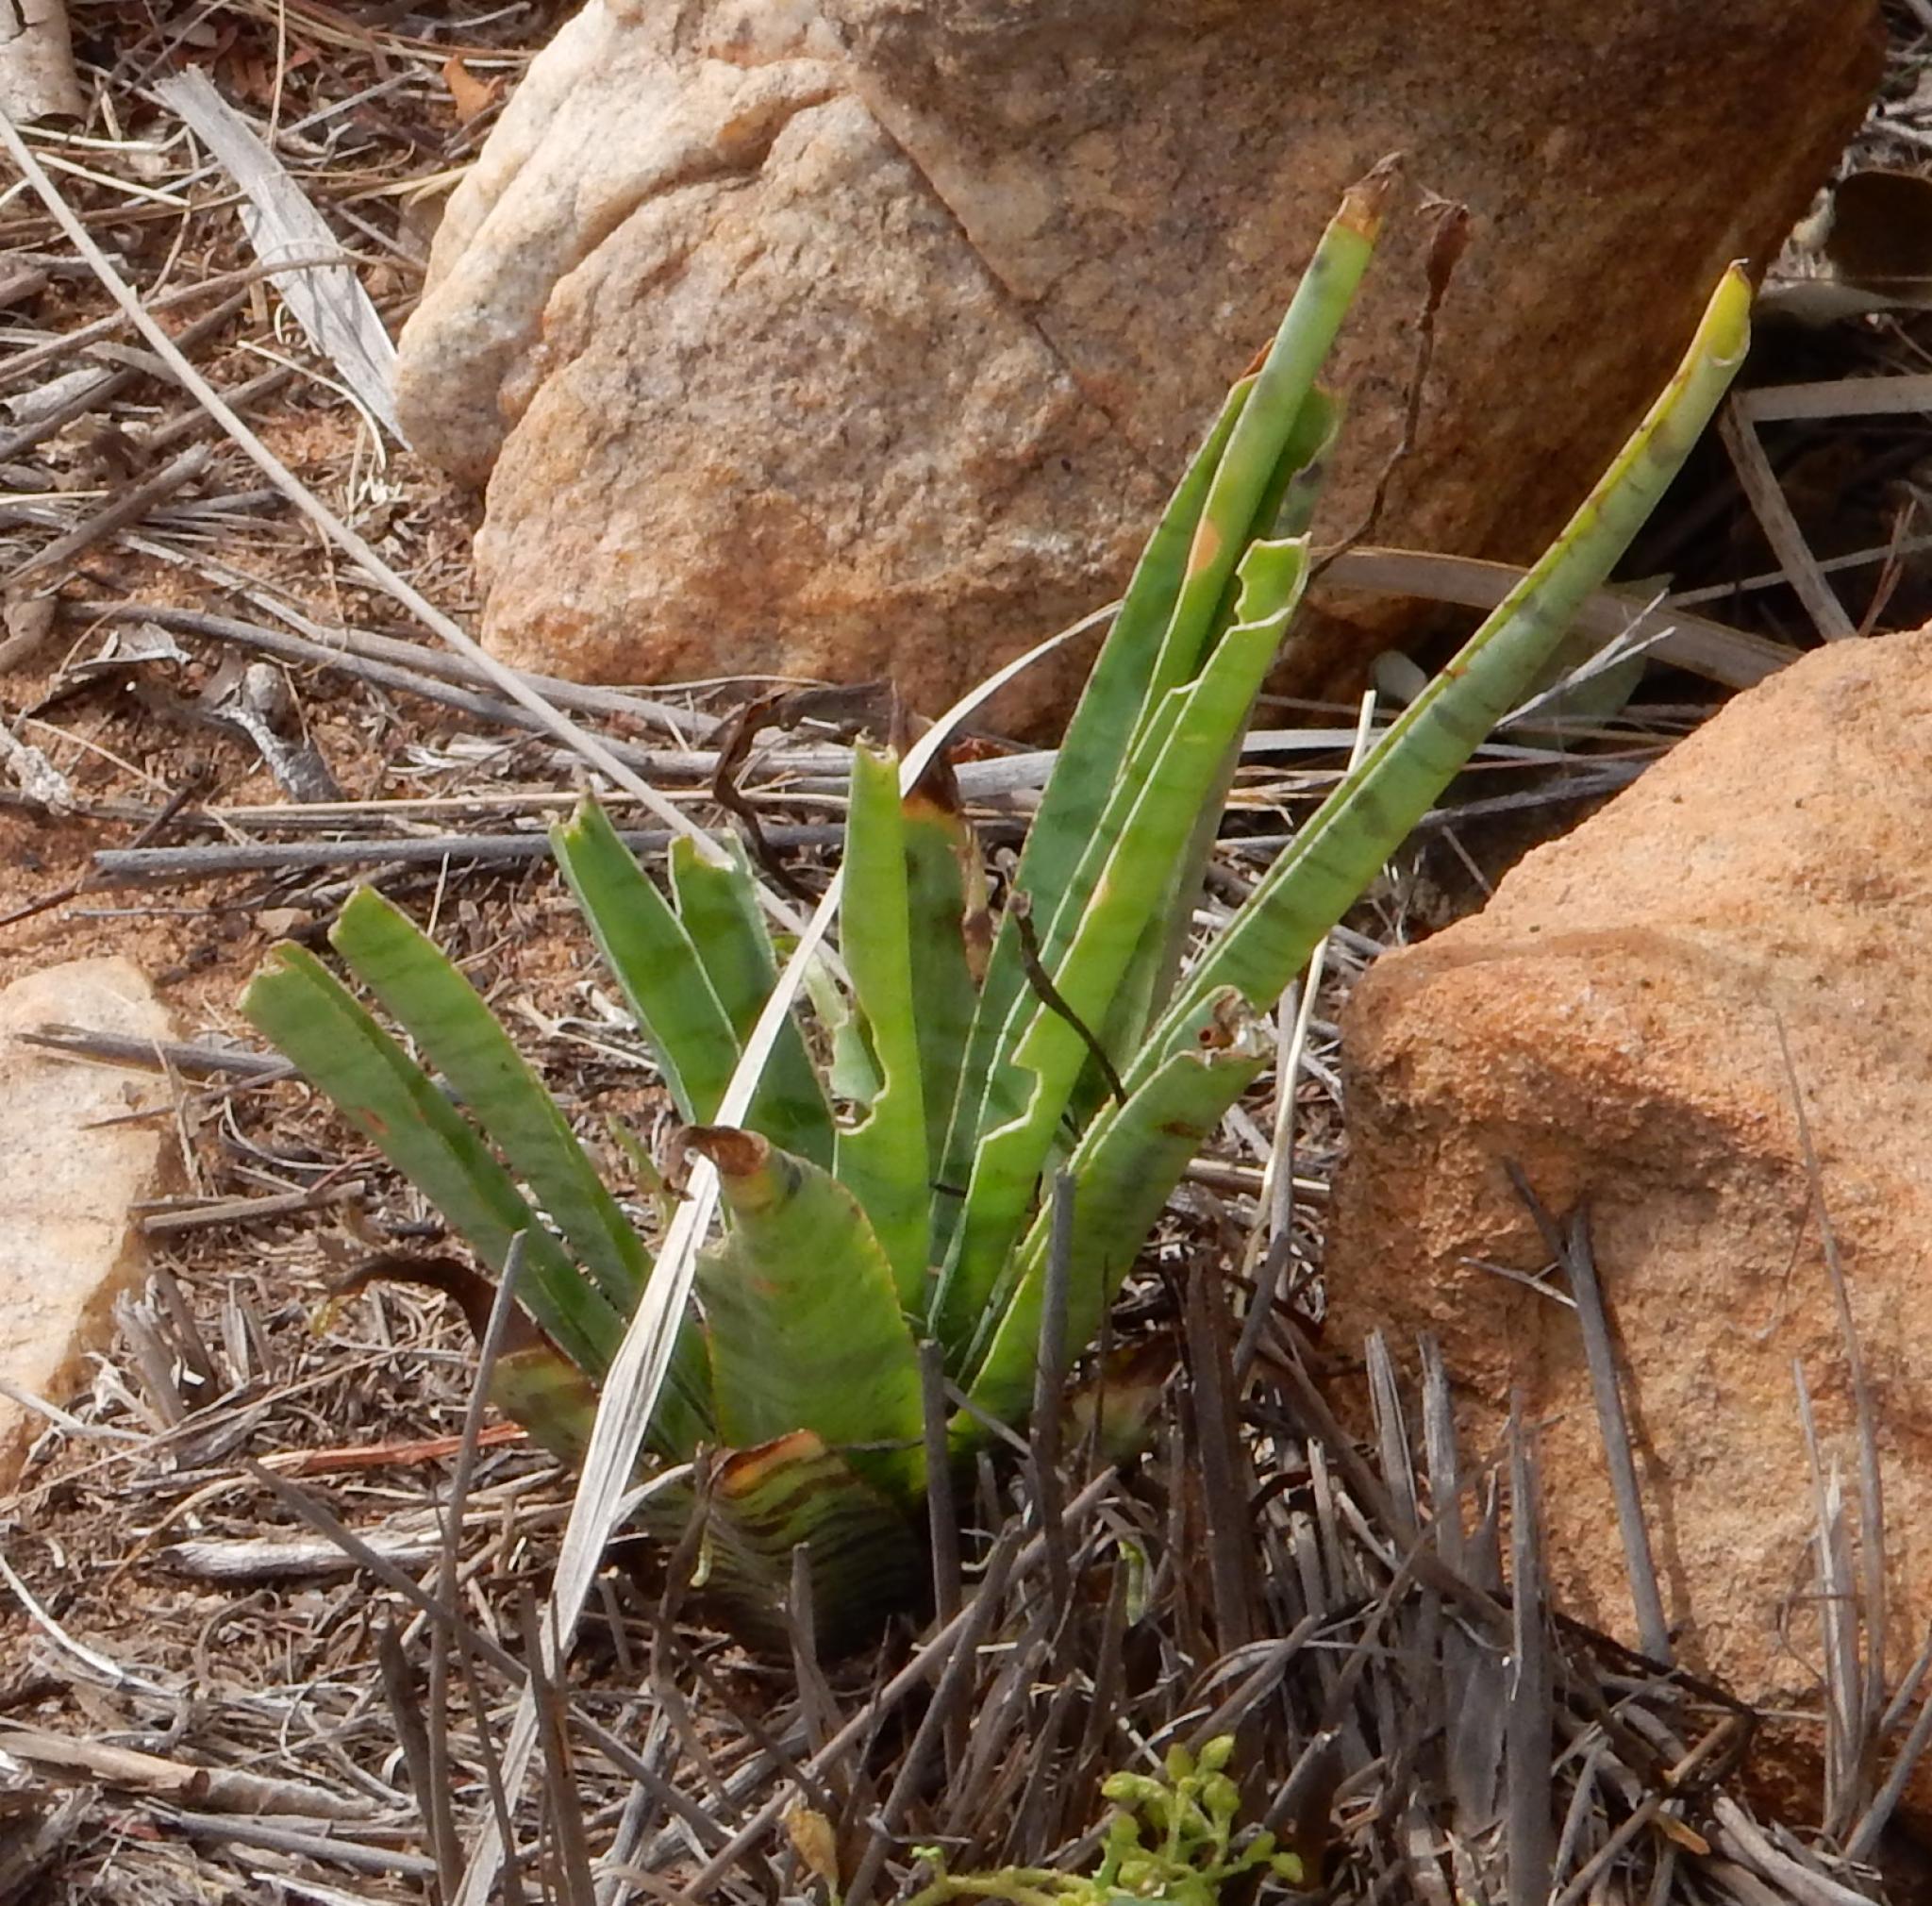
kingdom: Plantae
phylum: Tracheophyta
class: Liliopsida
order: Asparagales
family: Asparagaceae
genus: Dracaena
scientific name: Dracaena hyacinthoides
